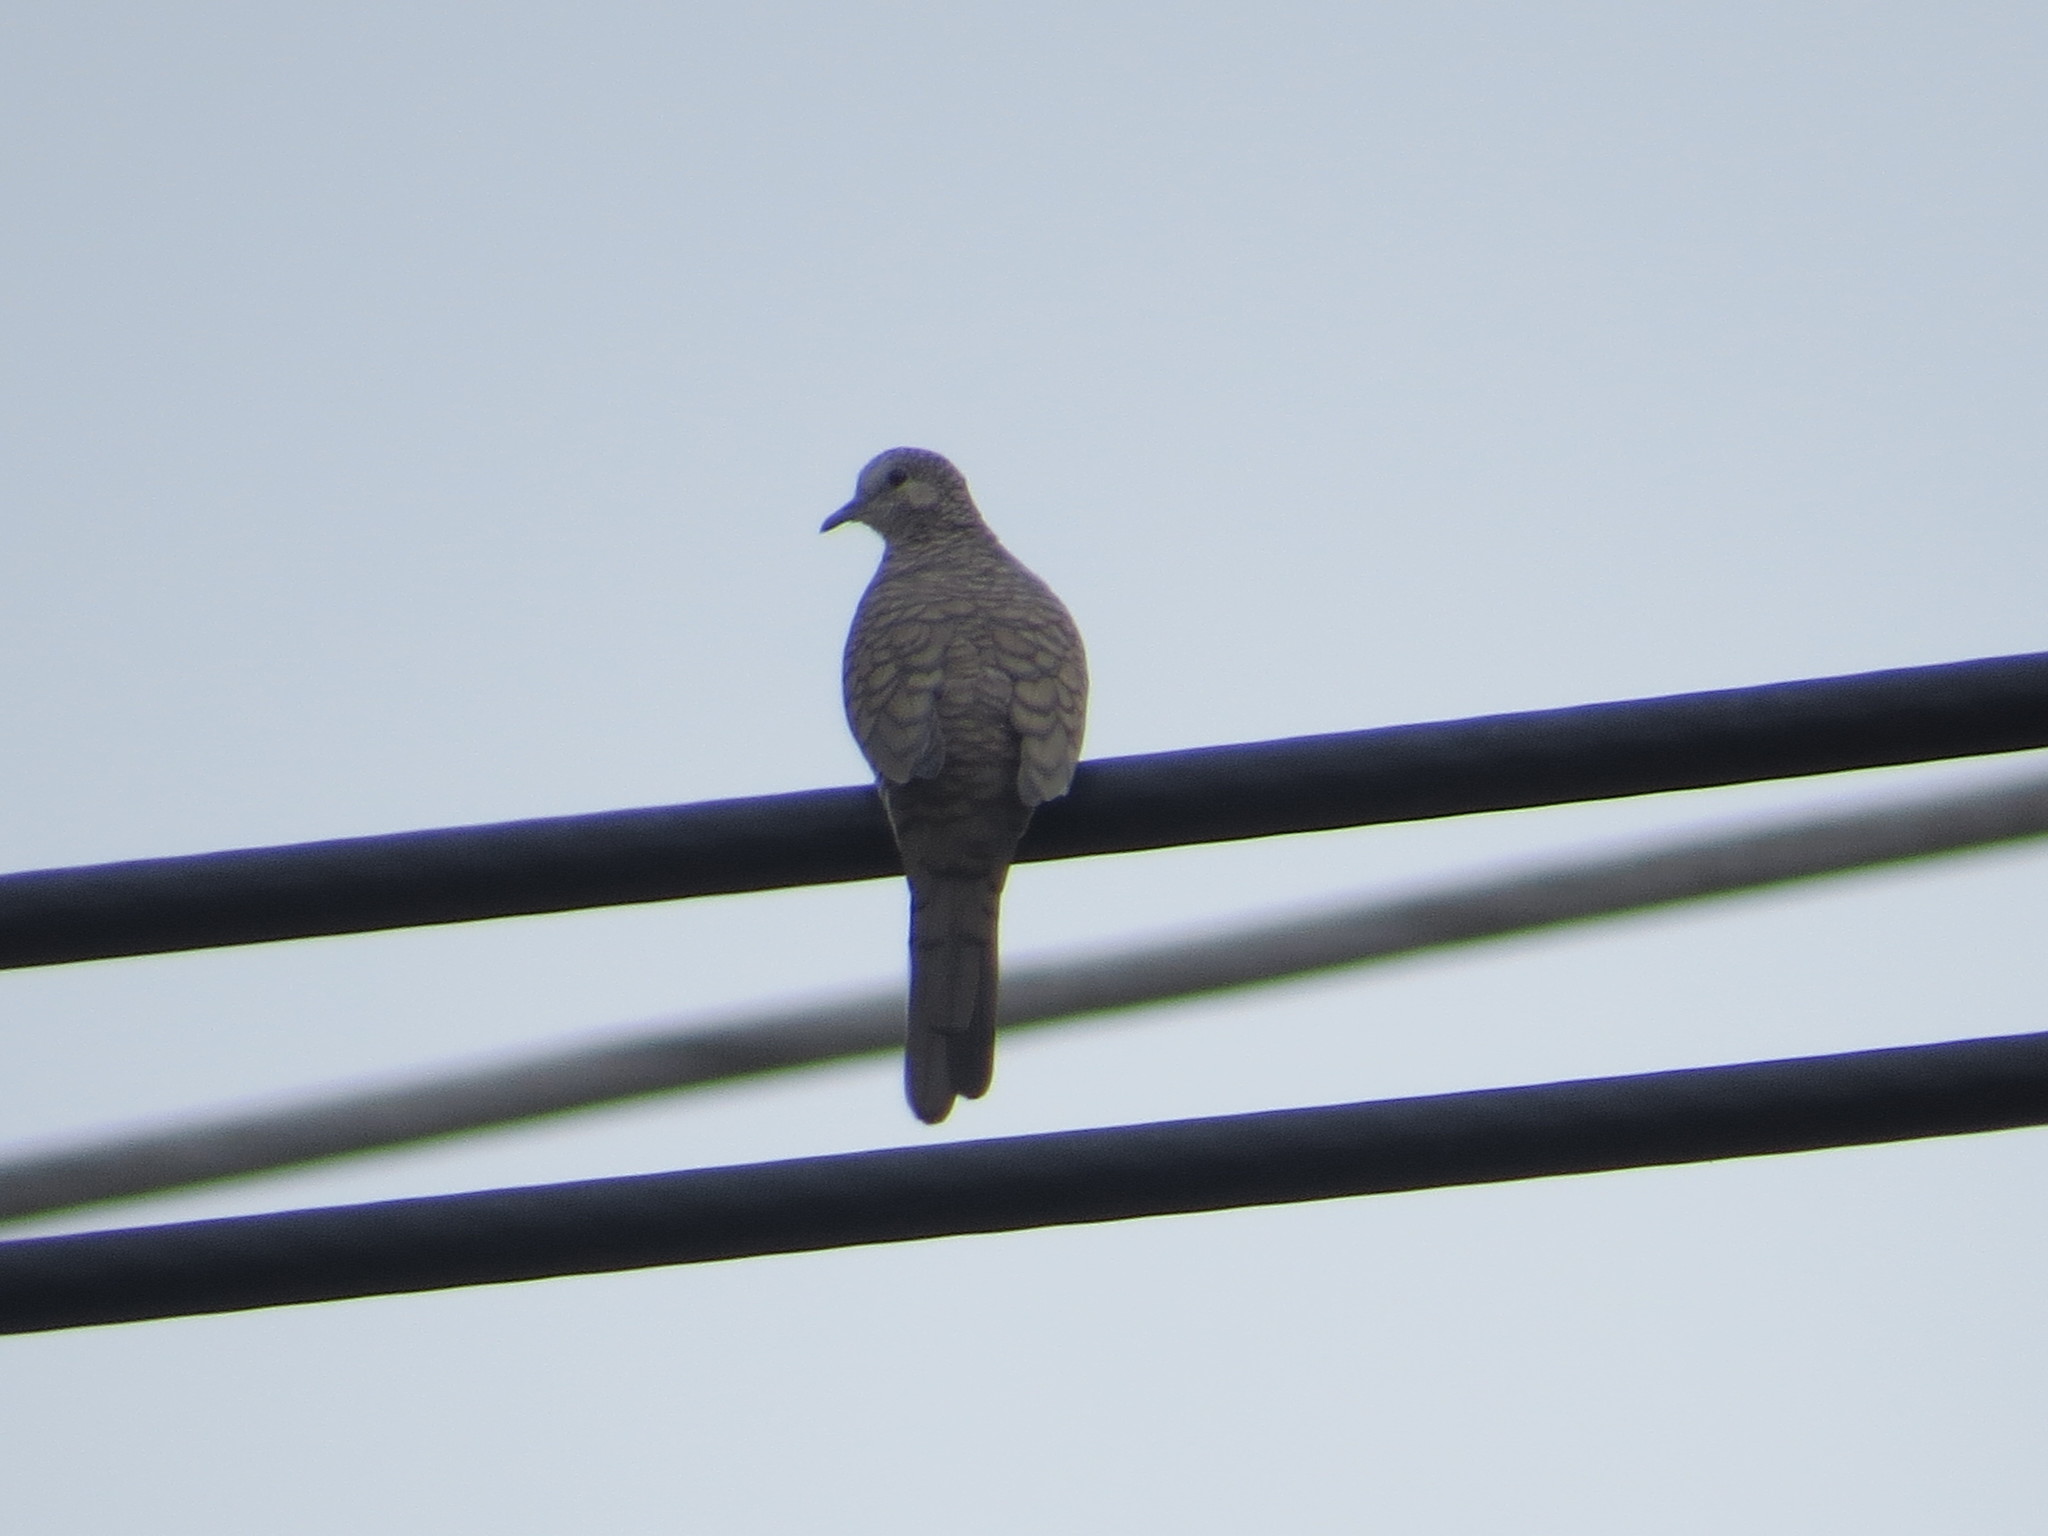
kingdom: Animalia
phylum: Chordata
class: Aves
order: Columbiformes
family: Columbidae
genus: Columbina
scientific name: Columbina inca
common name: Inca dove
